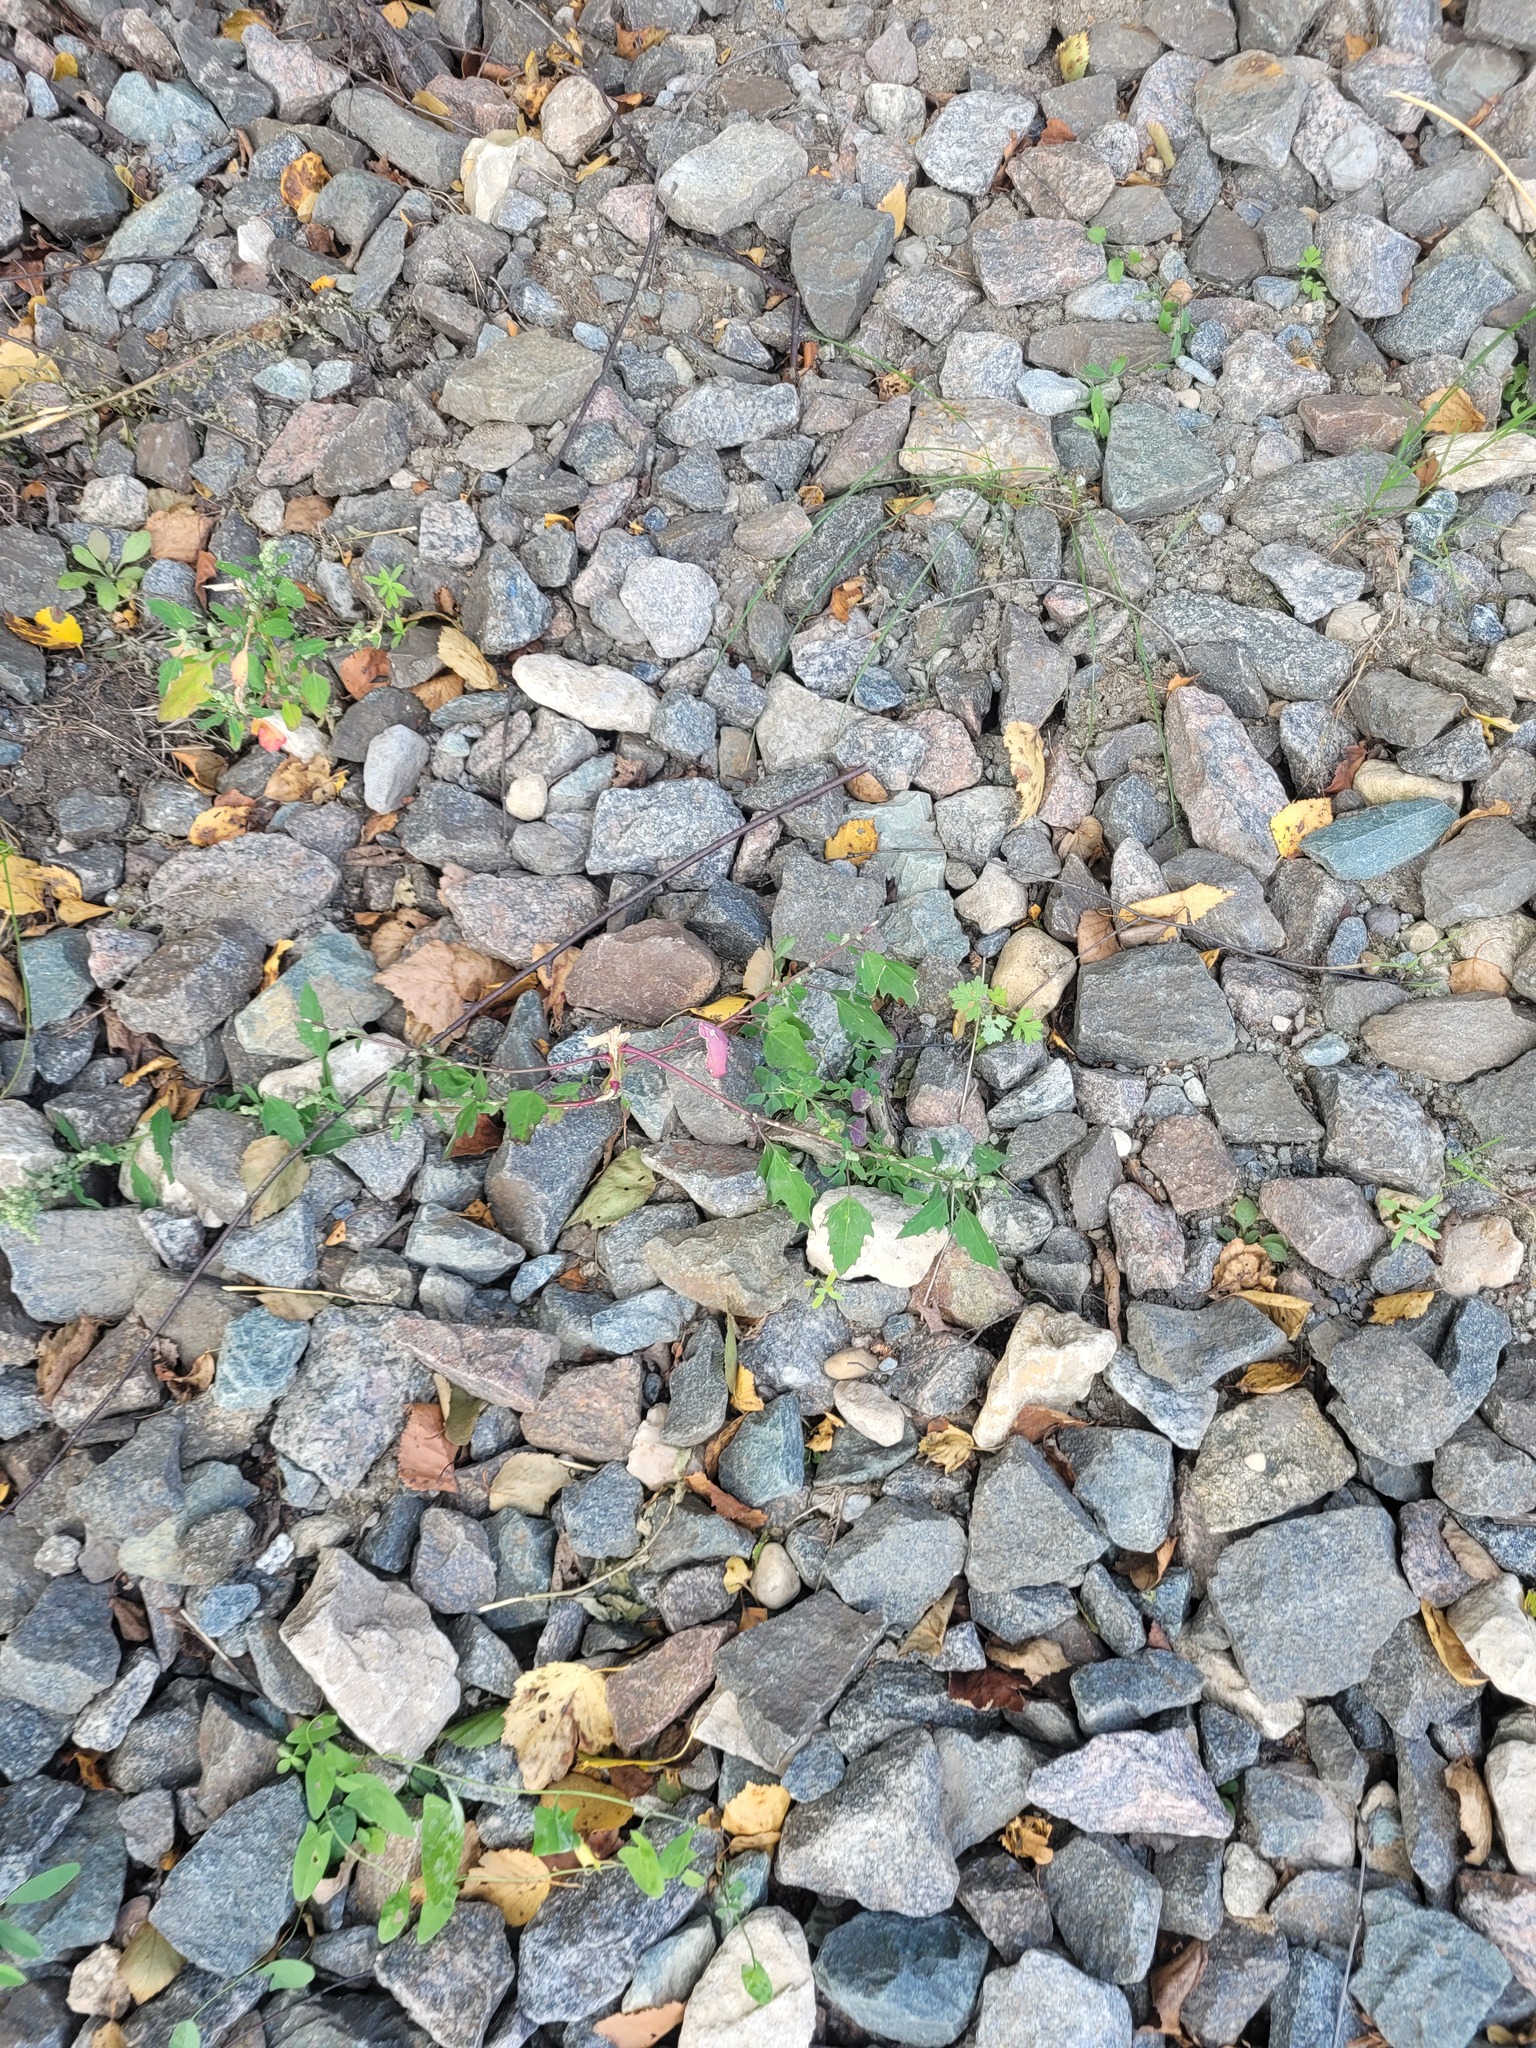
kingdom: Plantae
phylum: Tracheophyta
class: Magnoliopsida
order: Caryophyllales
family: Amaranthaceae
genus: Chenopodium
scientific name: Chenopodium album
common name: Fat-hen
